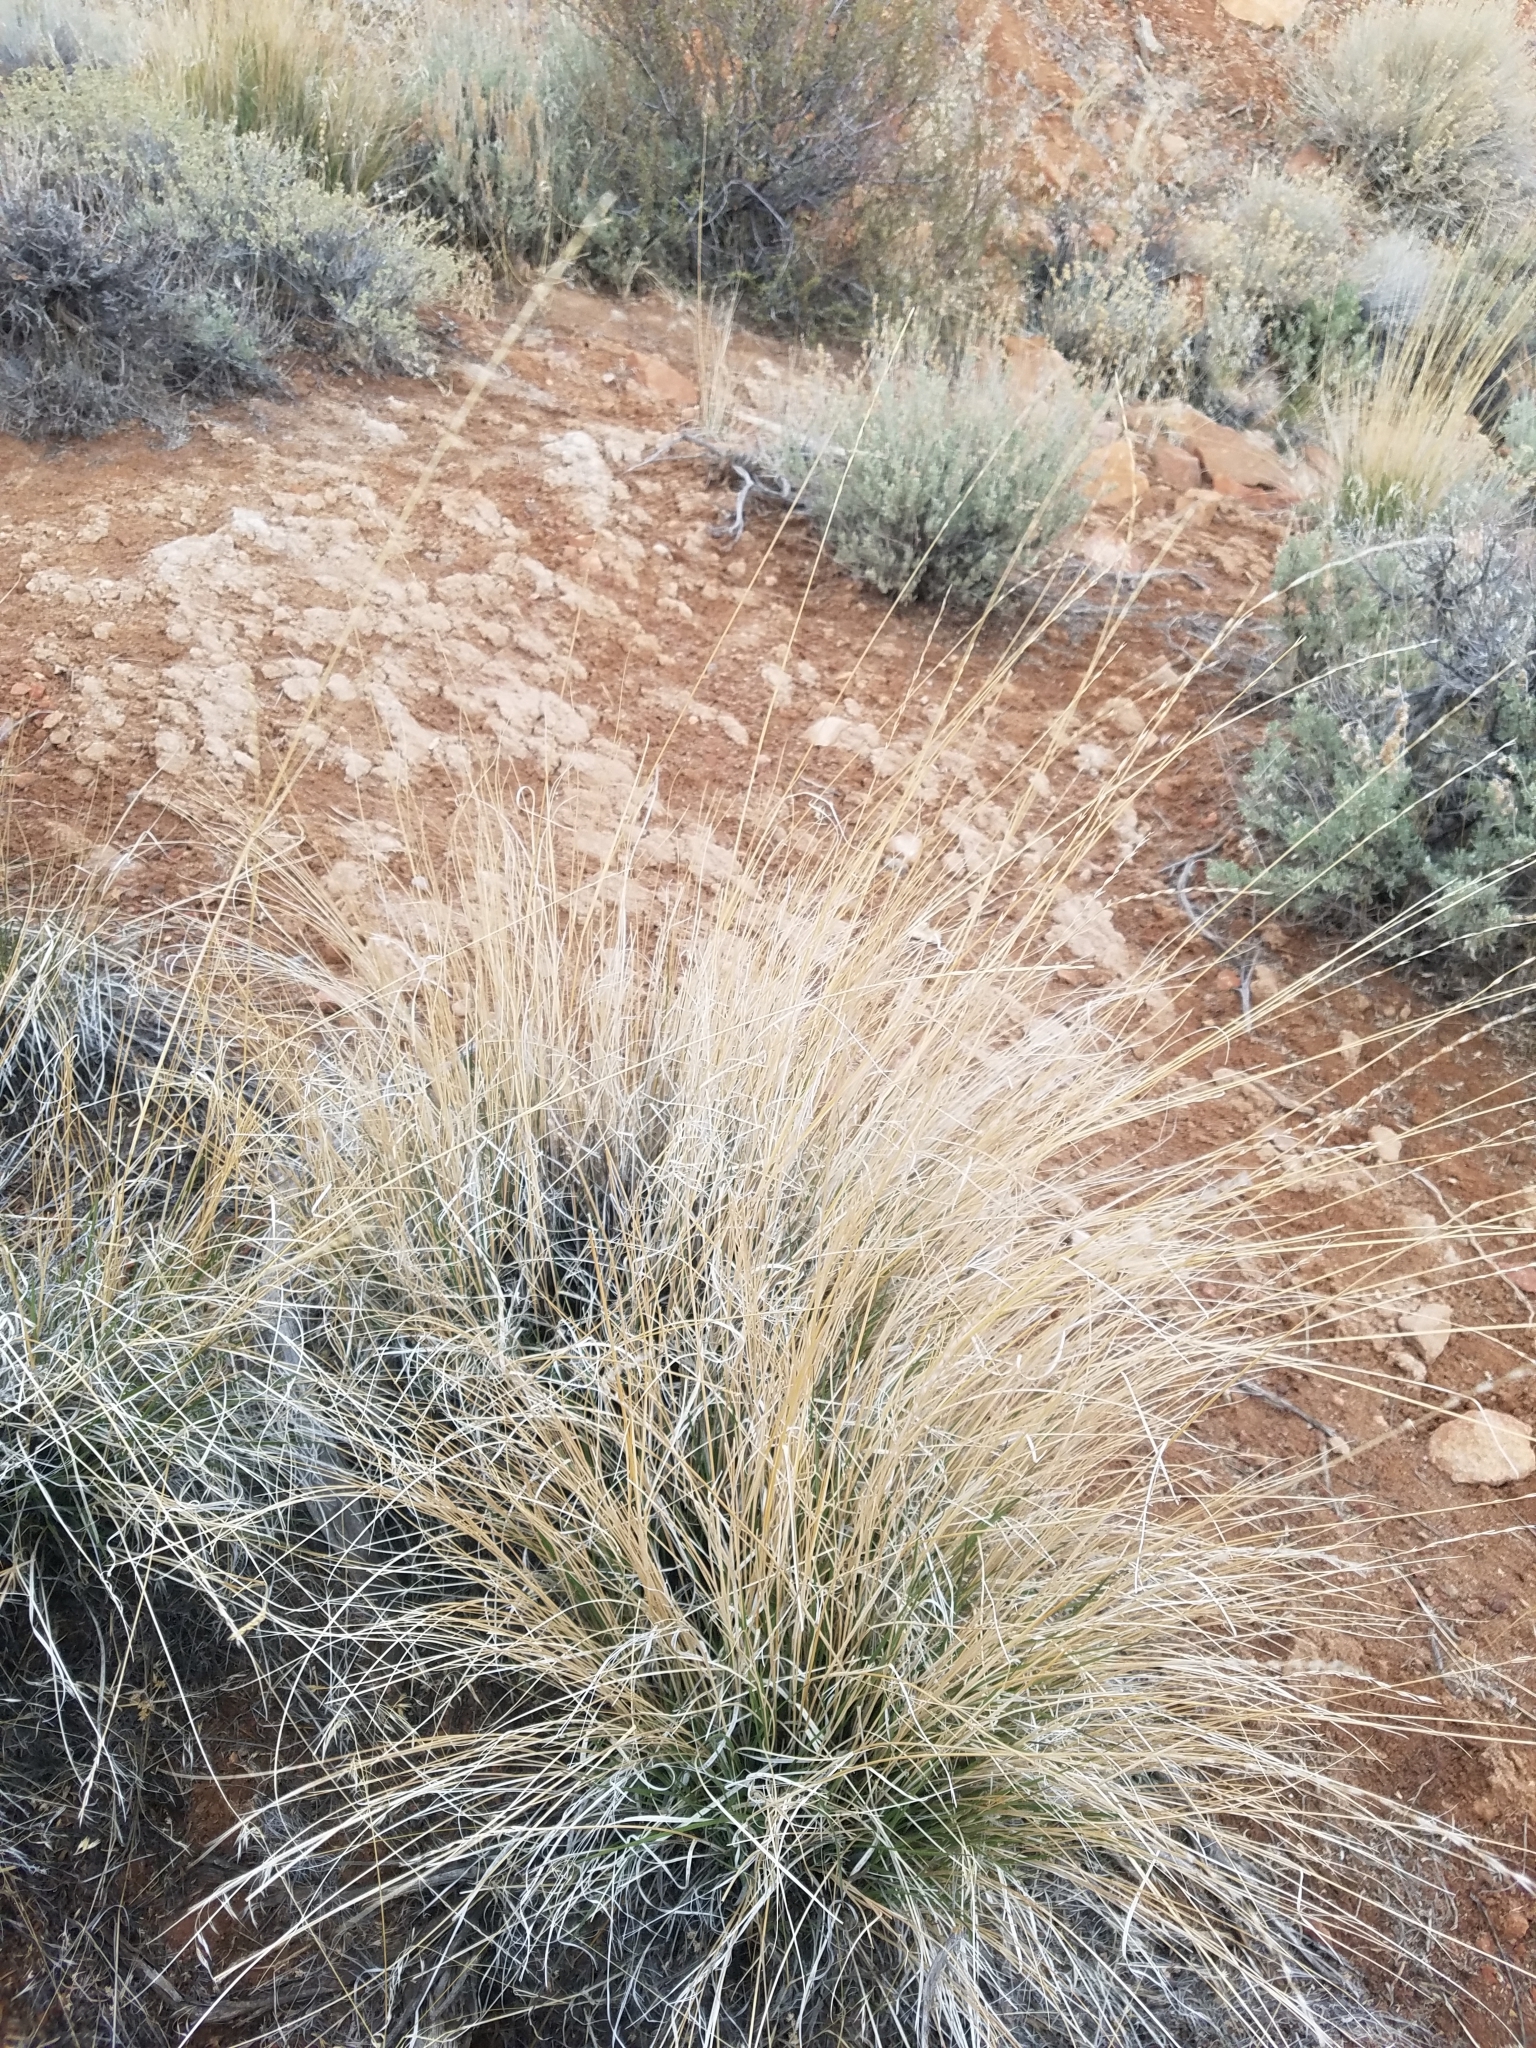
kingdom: Plantae
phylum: Tracheophyta
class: Liliopsida
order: Poales
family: Poaceae
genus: Pseudoroegneria
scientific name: Pseudoroegneria spicata
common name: Bluebunch wheatgrass
